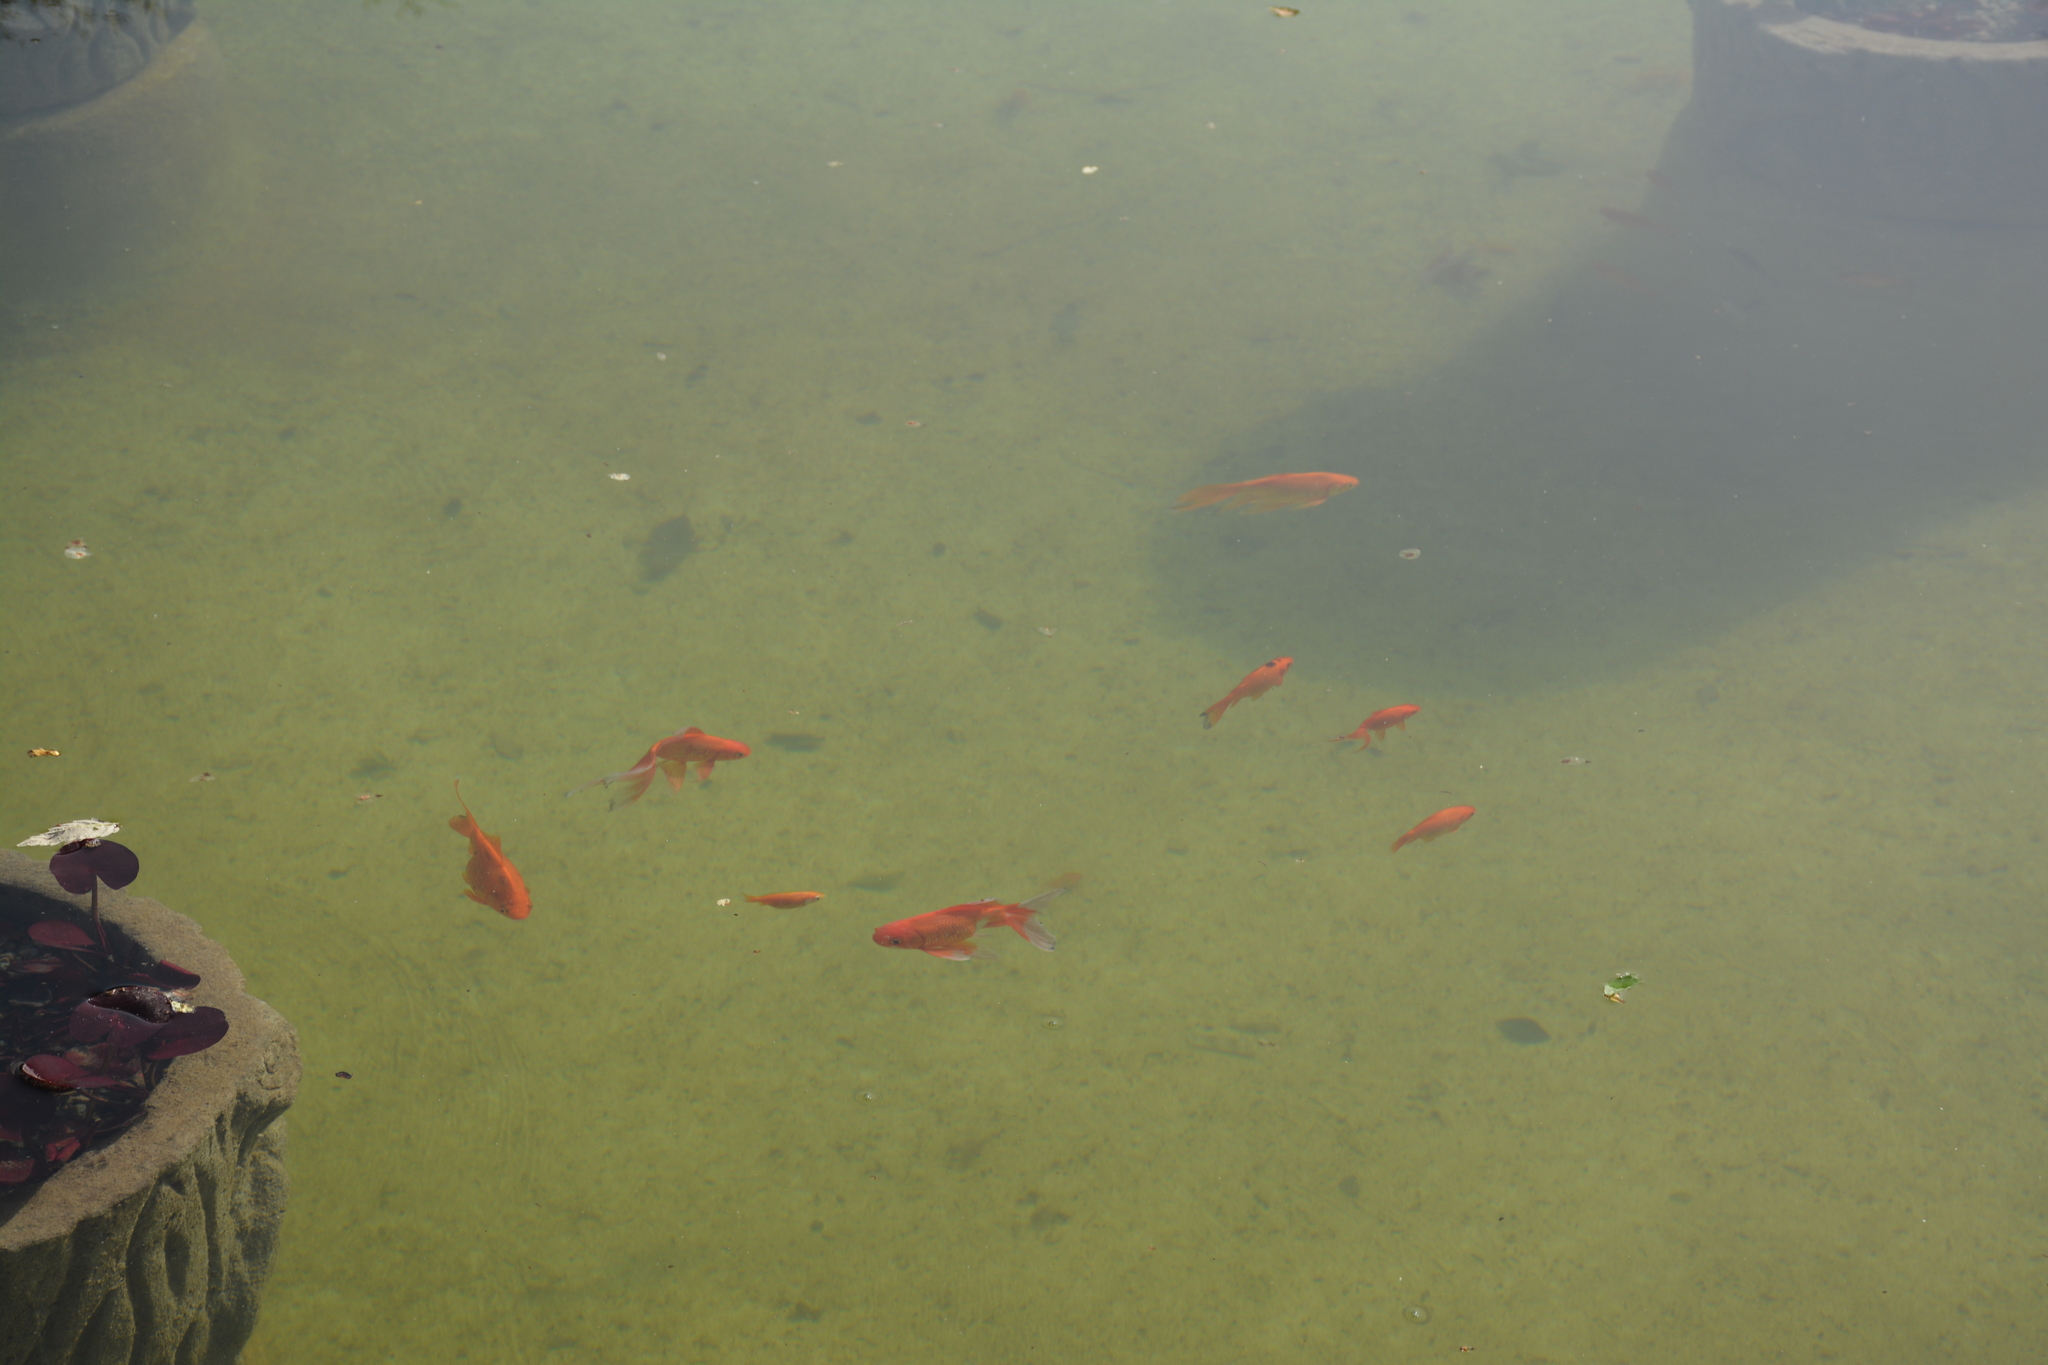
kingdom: Animalia
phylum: Chordata
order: Cypriniformes
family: Cyprinidae
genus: Carassius
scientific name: Carassius auratus
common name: Goldfish
